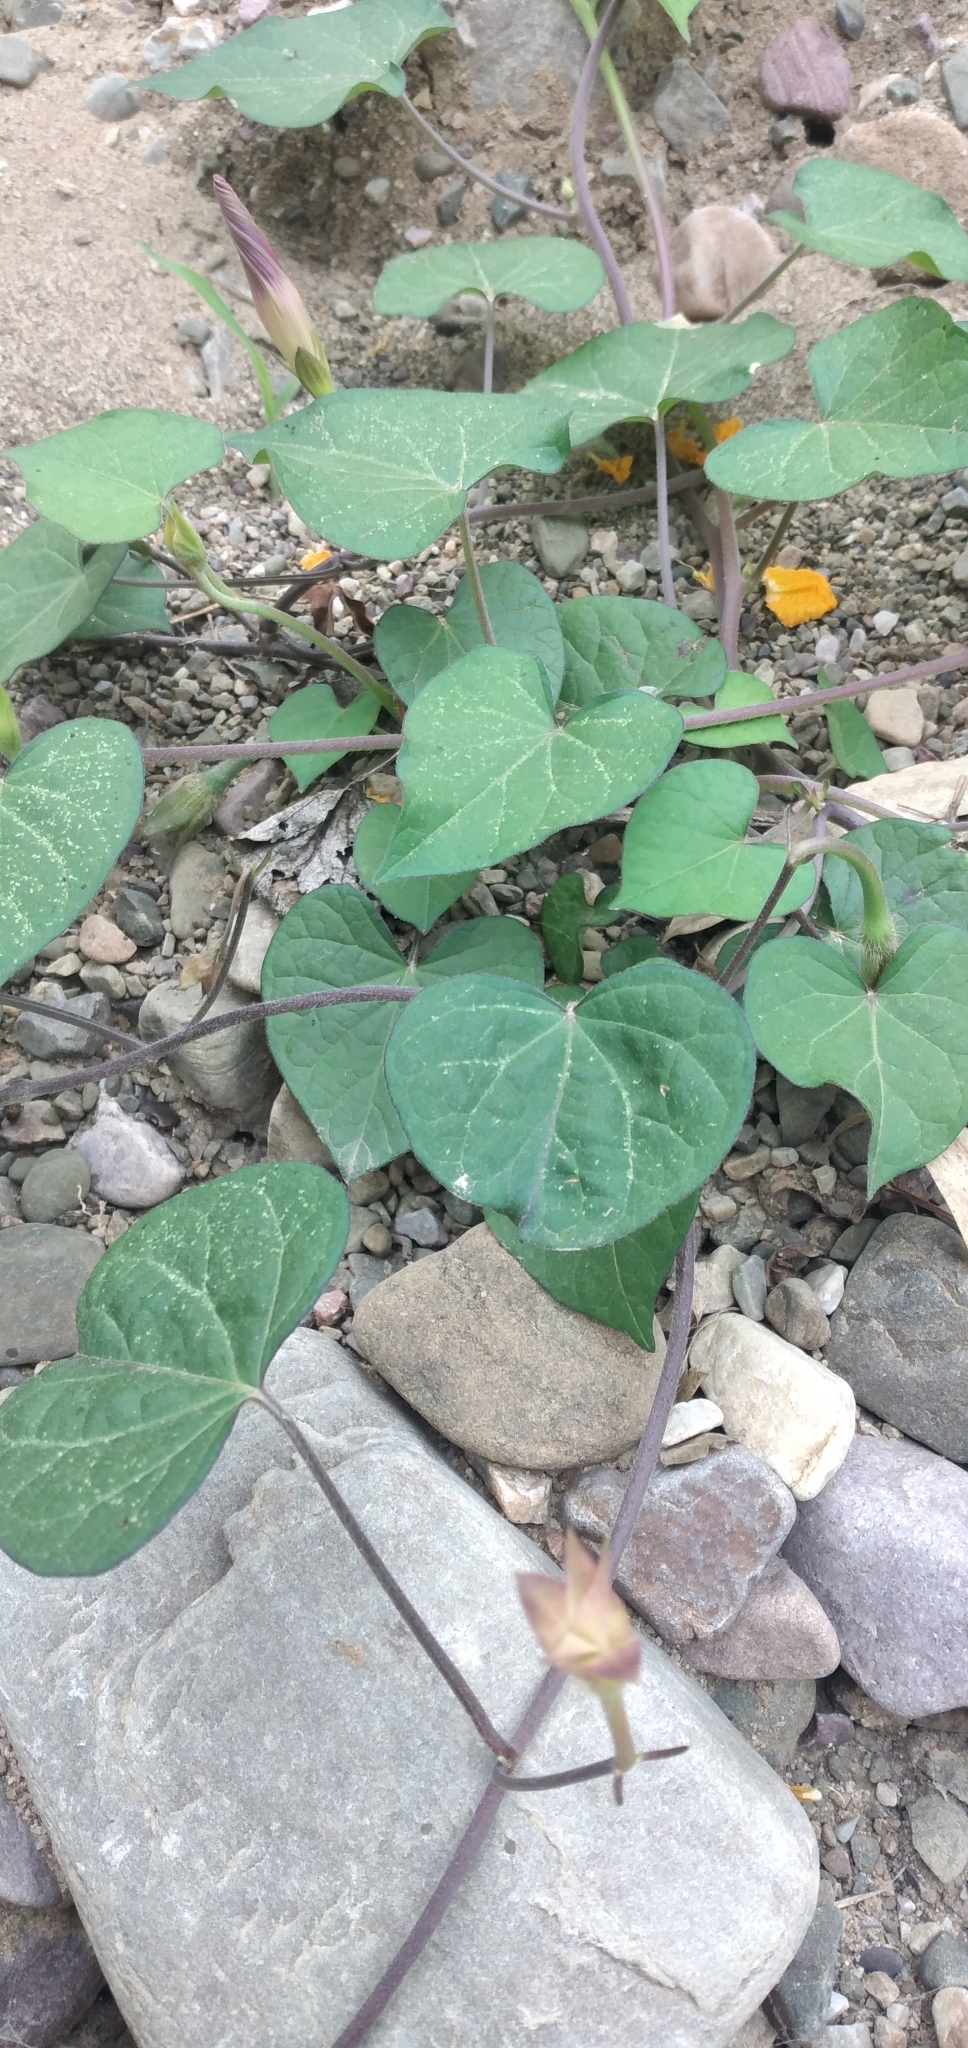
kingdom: Plantae
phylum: Tracheophyta
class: Magnoliopsida
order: Solanales
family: Convolvulaceae
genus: Ipomoea
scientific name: Ipomoea purpurea
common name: Common morning-glory
